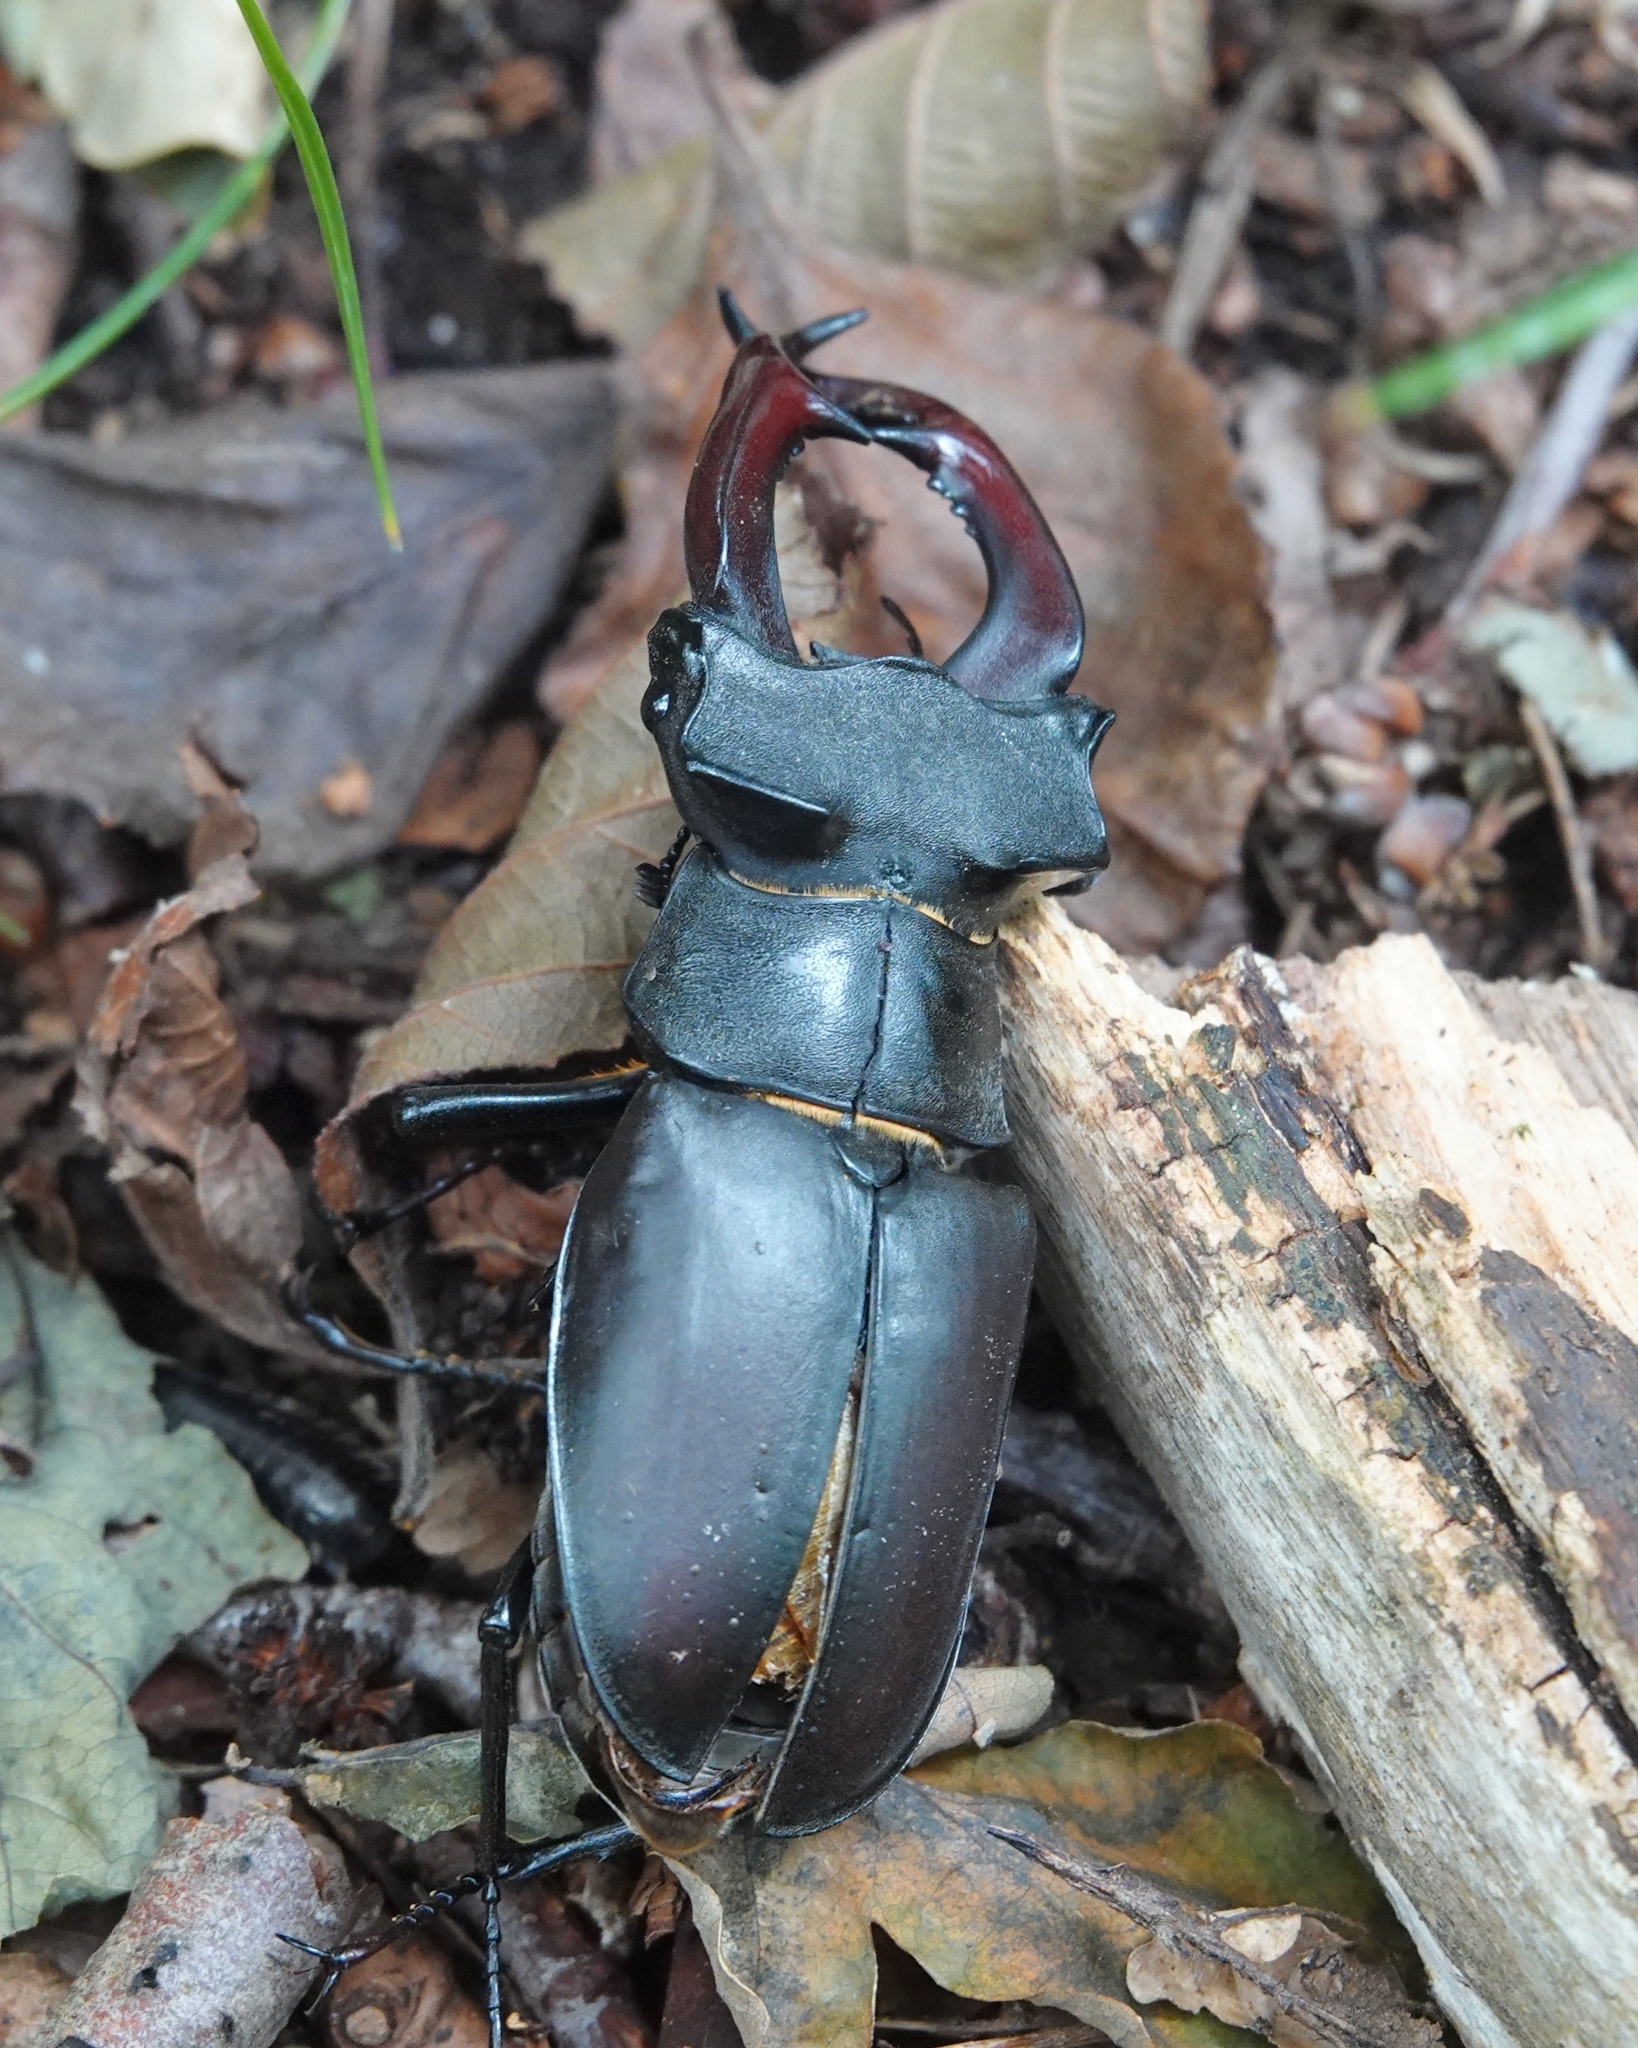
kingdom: Animalia
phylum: Arthropoda
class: Insecta
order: Coleoptera
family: Lucanidae
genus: Lucanus
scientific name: Lucanus cervus
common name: Stag beetle
